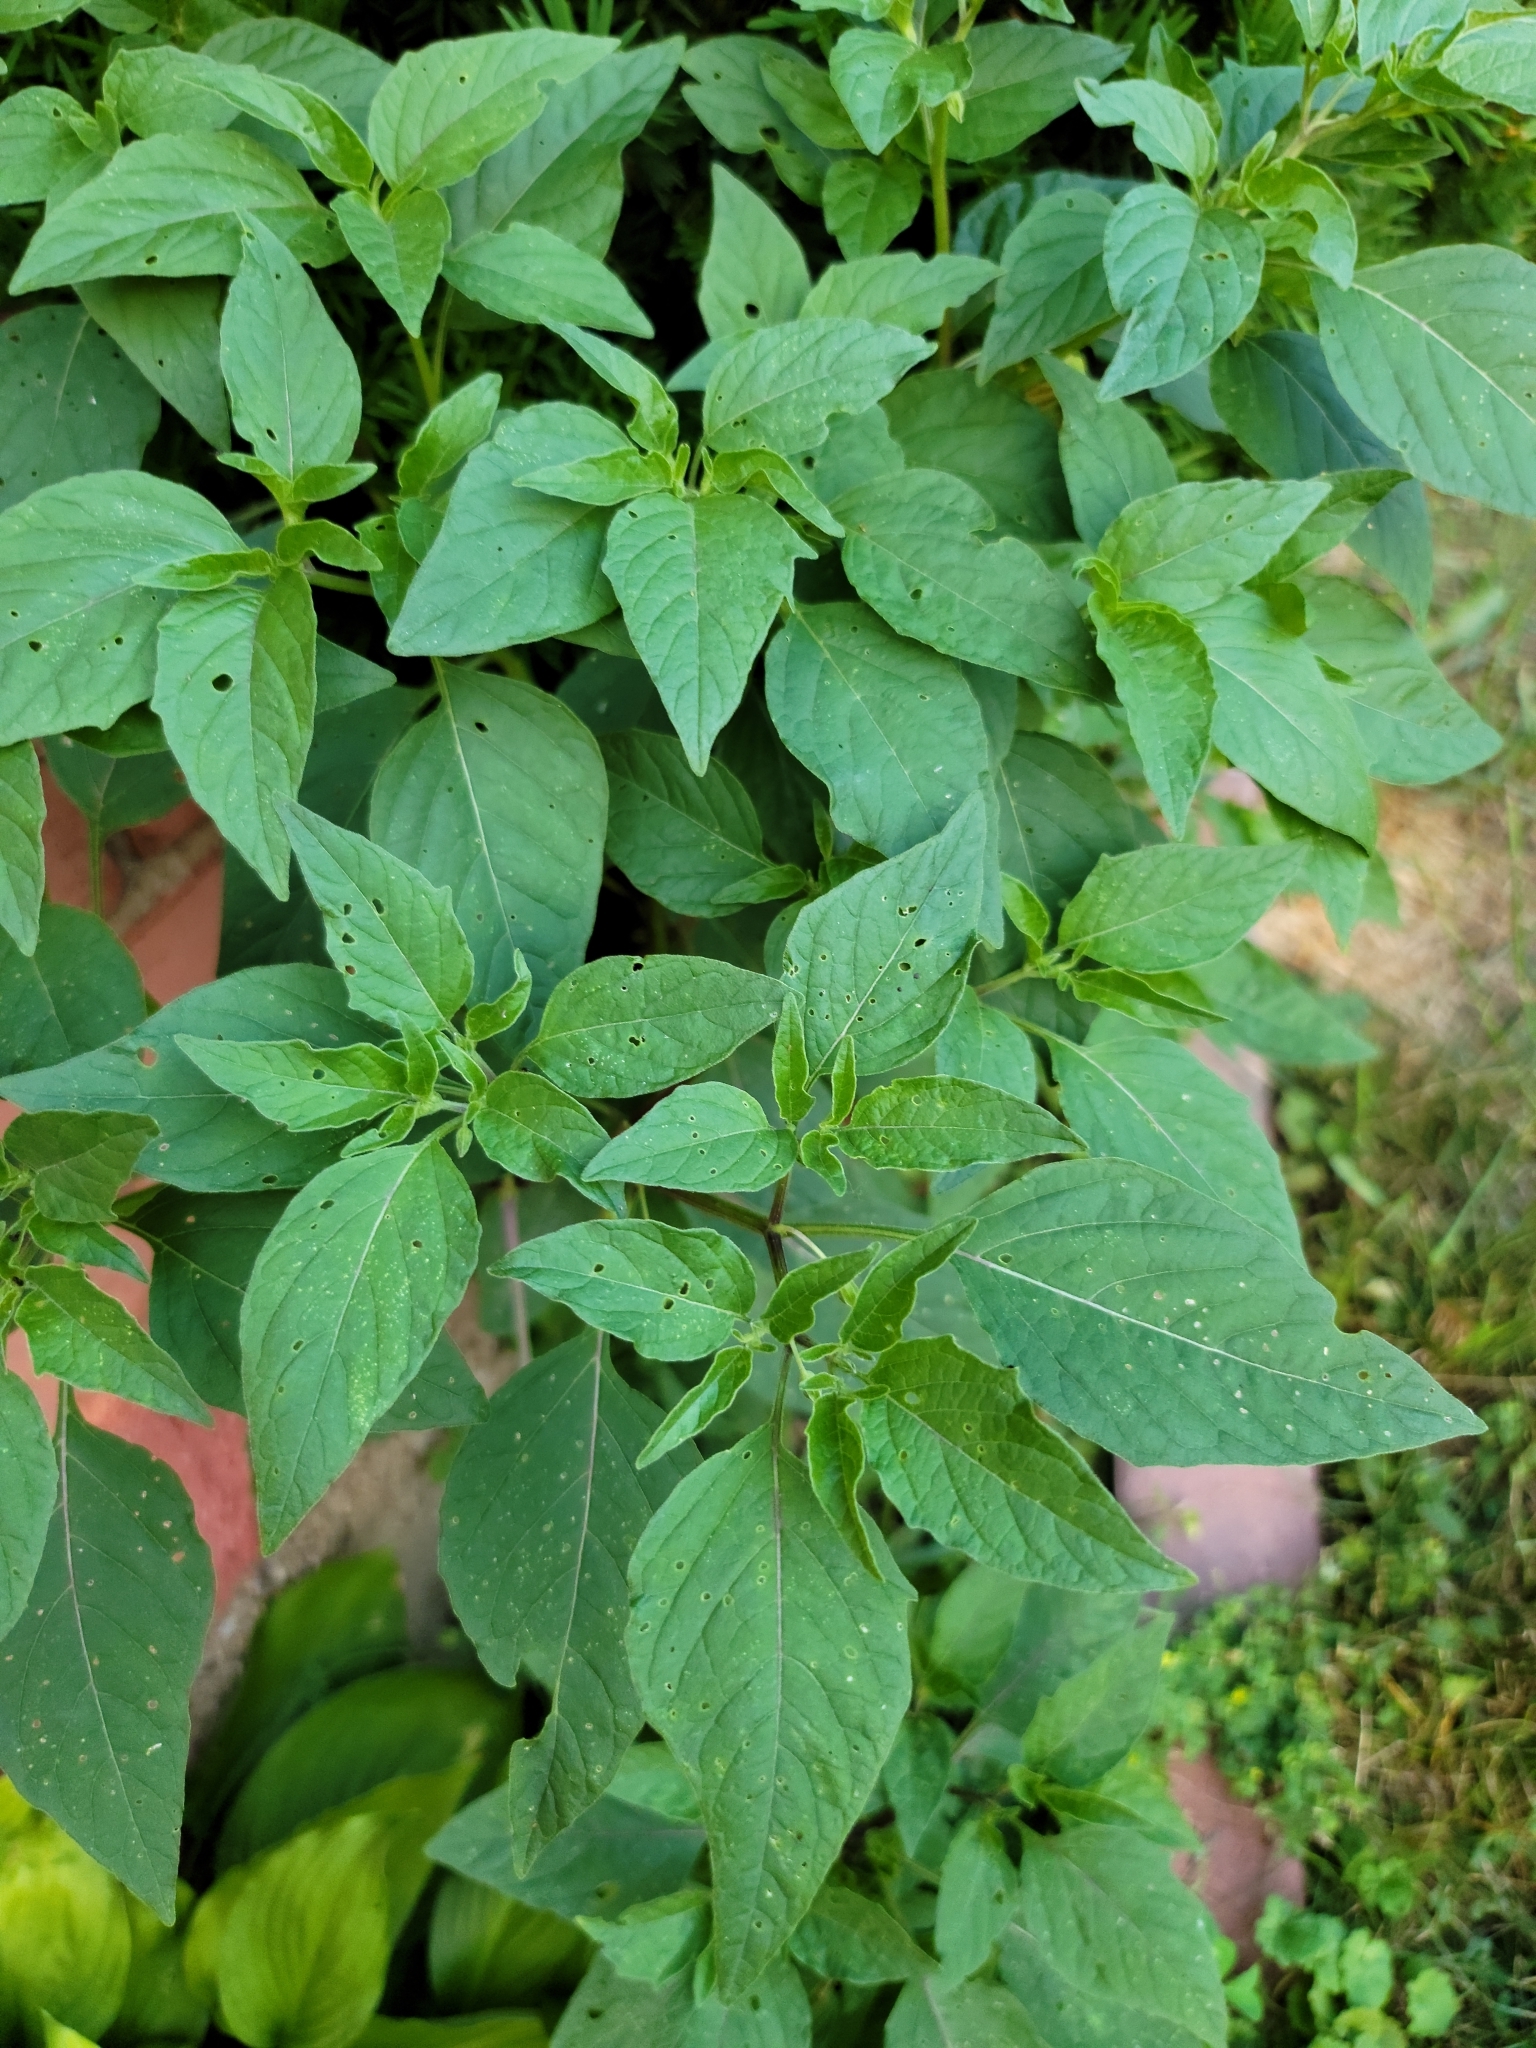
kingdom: Plantae
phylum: Tracheophyta
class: Magnoliopsida
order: Solanales
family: Solanaceae
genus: Physalis
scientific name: Physalis longifolia
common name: Common ground-cherry
